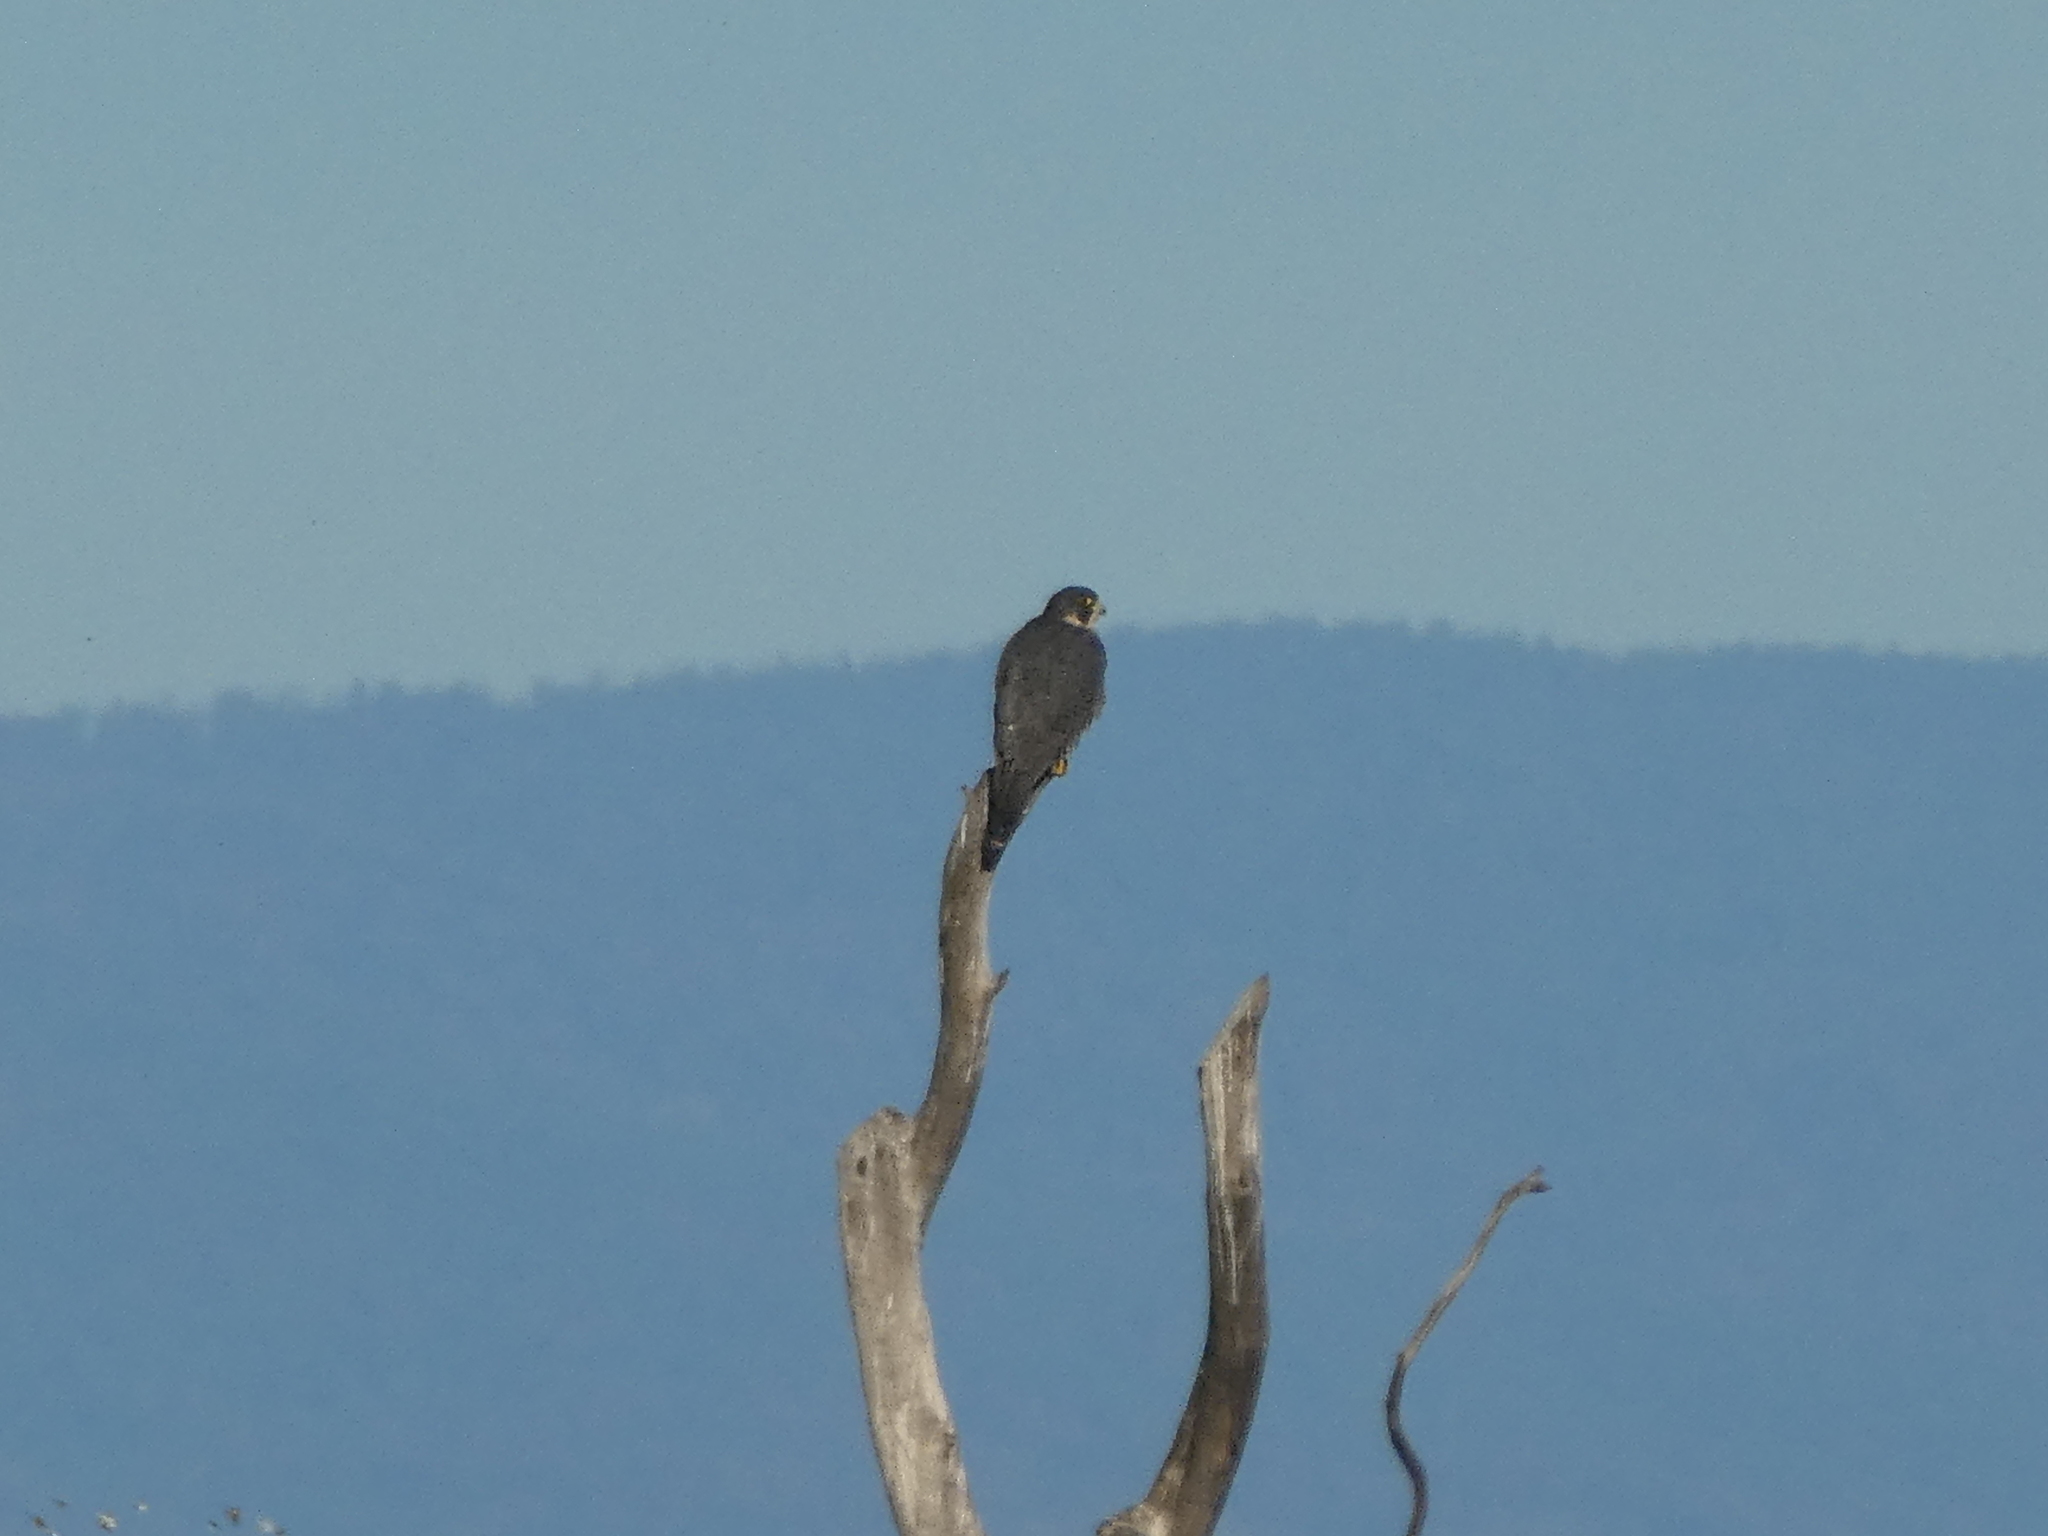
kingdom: Animalia
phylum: Chordata
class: Aves
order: Falconiformes
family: Falconidae
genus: Falco
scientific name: Falco peregrinus
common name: Peregrine falcon
